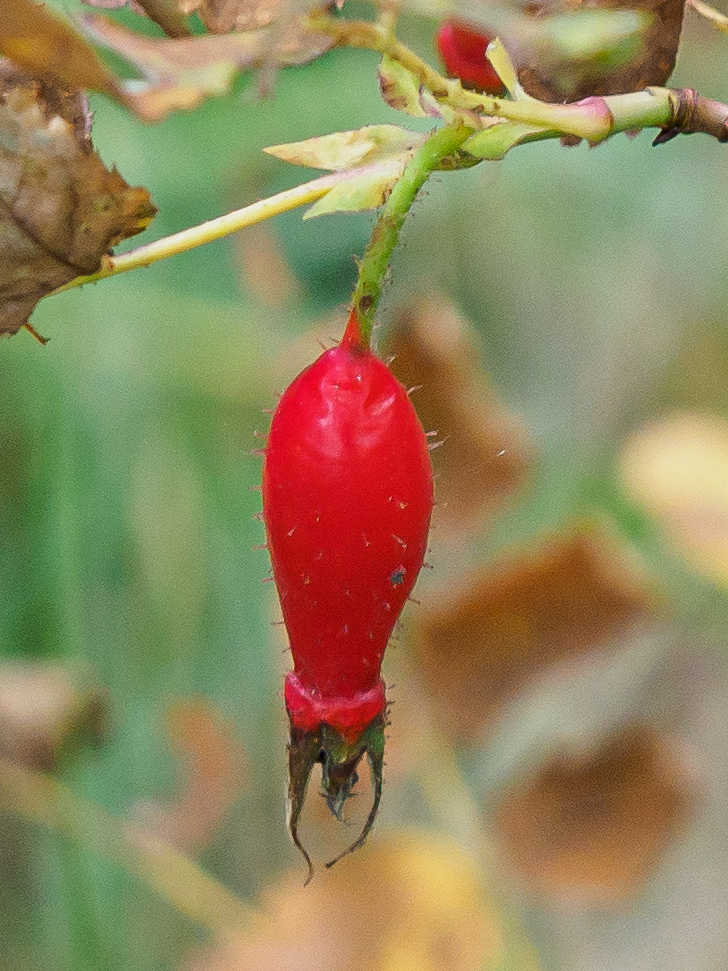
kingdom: Plantae
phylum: Tracheophyta
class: Magnoliopsida
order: Rosales
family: Rosaceae
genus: Rosa
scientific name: Rosa pendulina
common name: Alpine rose
